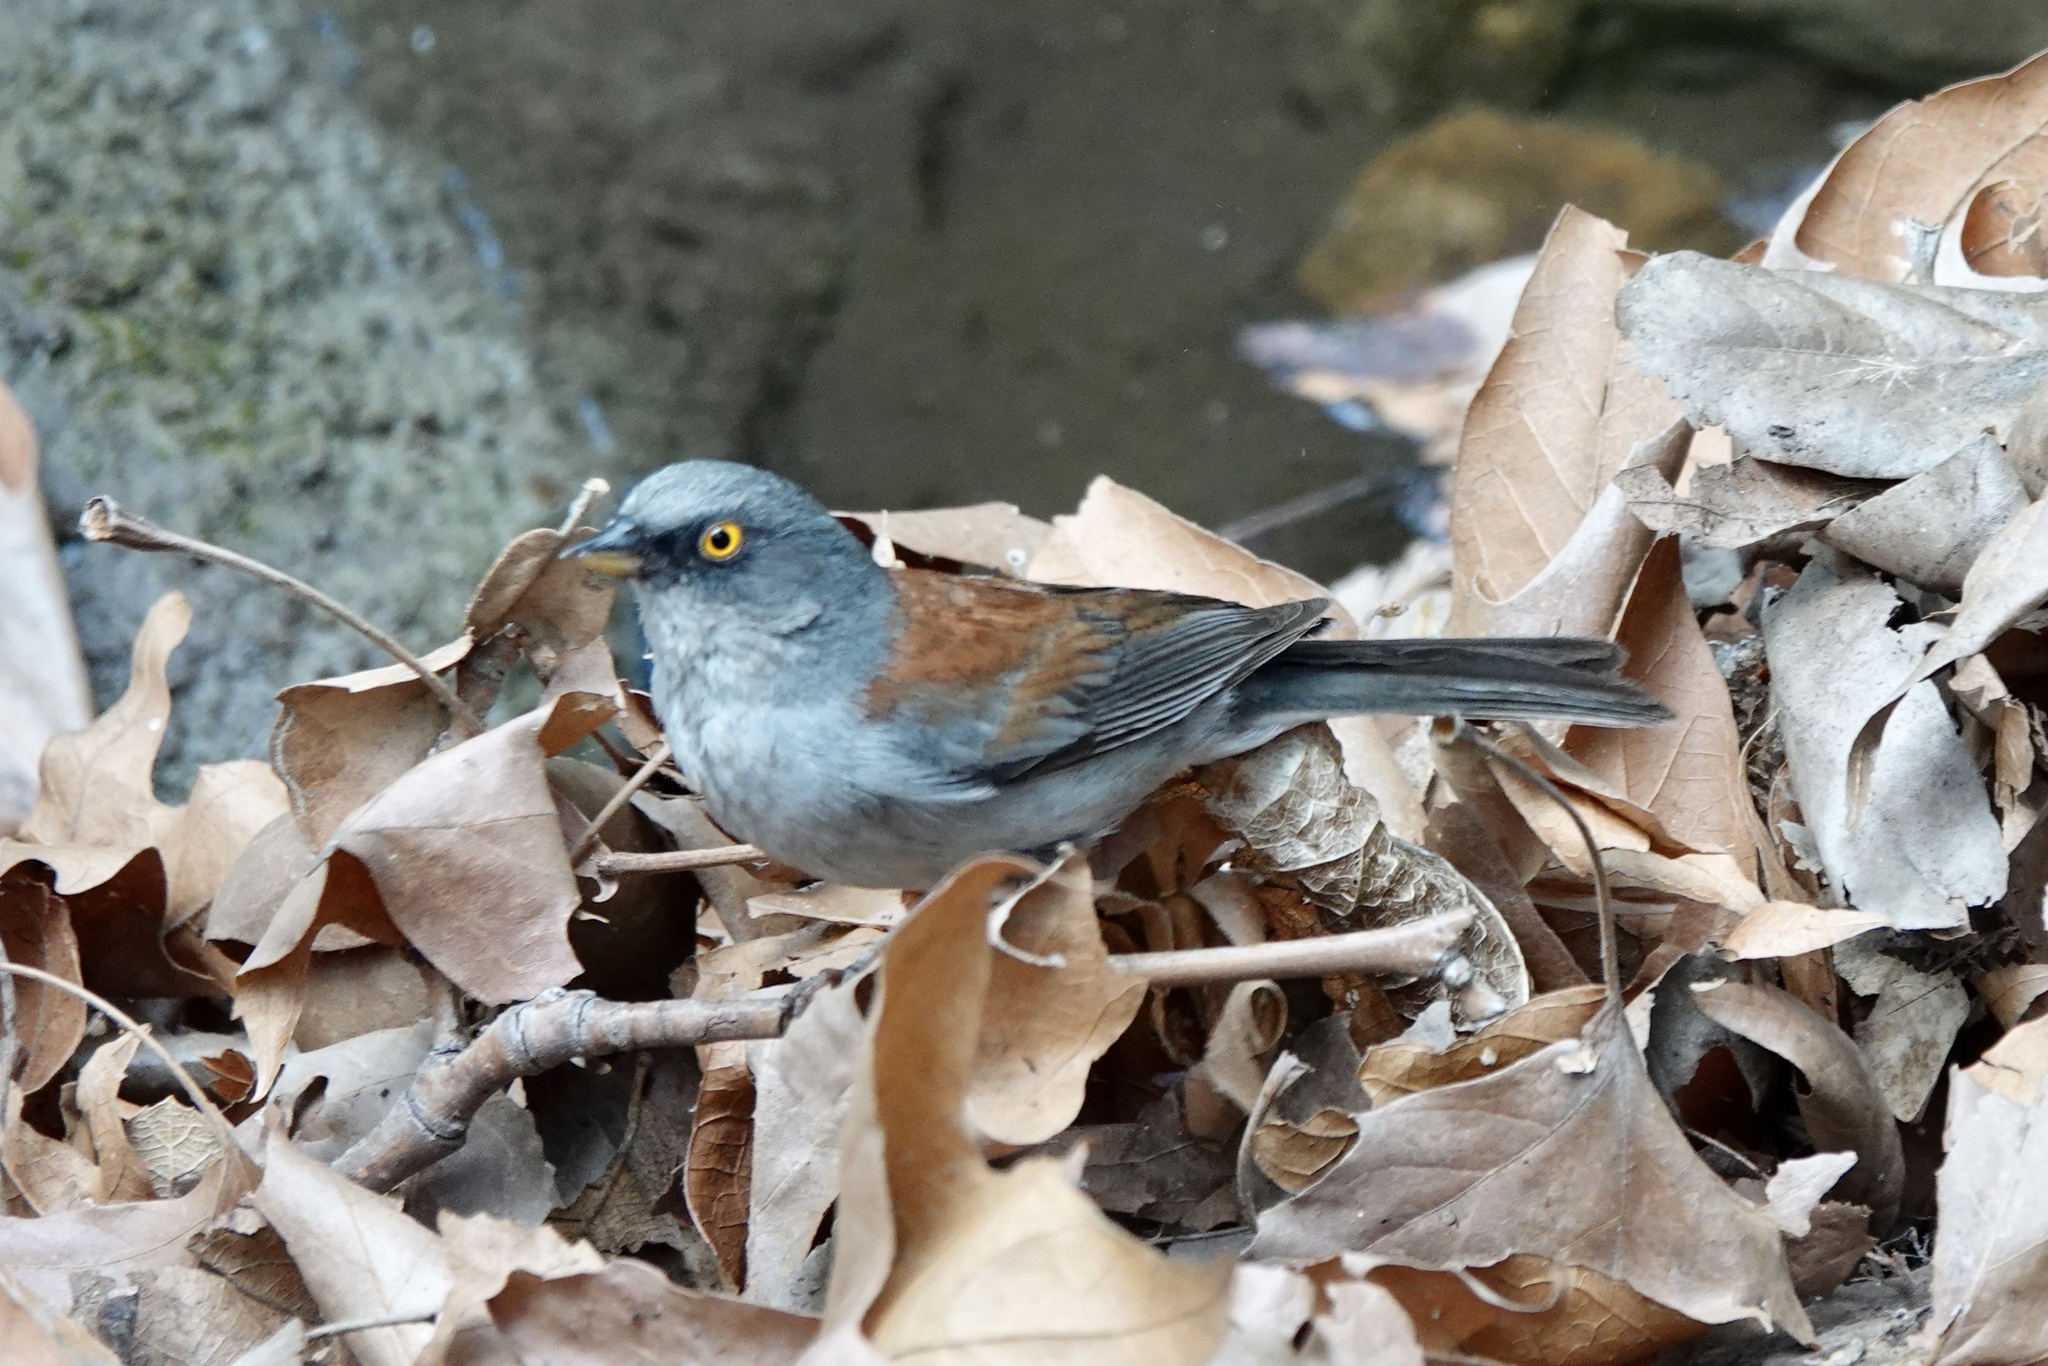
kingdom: Animalia
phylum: Chordata
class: Aves
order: Passeriformes
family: Passerellidae
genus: Junco
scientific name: Junco phaeonotus
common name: Yellow-eyed junco
